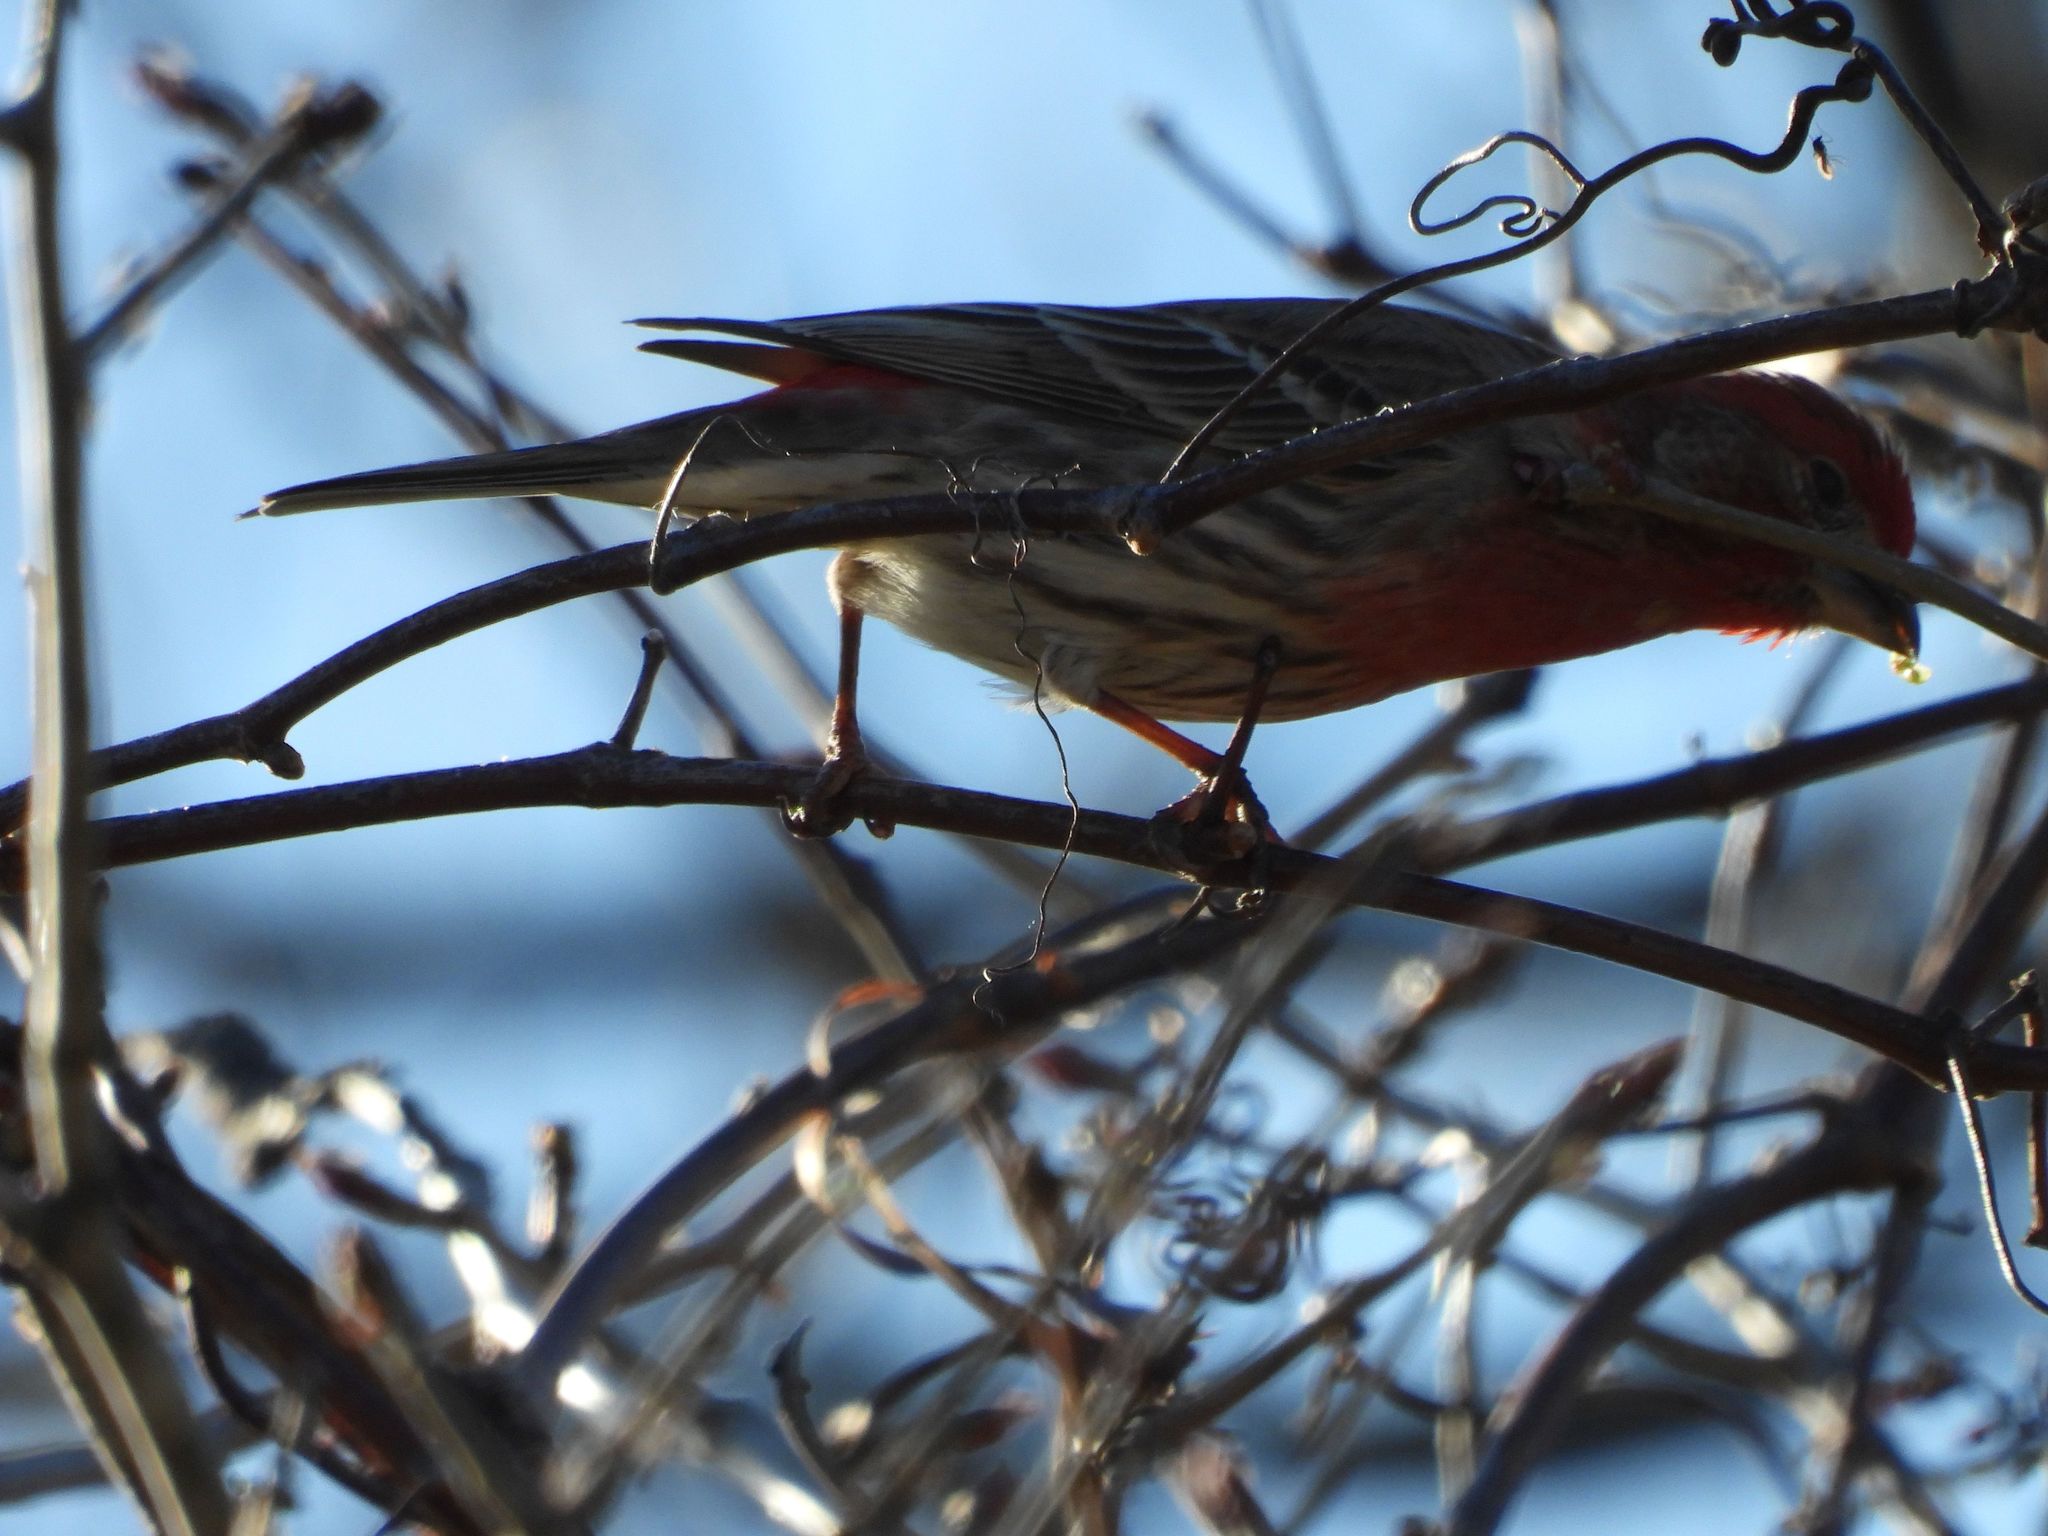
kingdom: Animalia
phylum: Chordata
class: Aves
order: Passeriformes
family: Fringillidae
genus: Haemorhous
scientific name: Haemorhous mexicanus
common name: House finch
